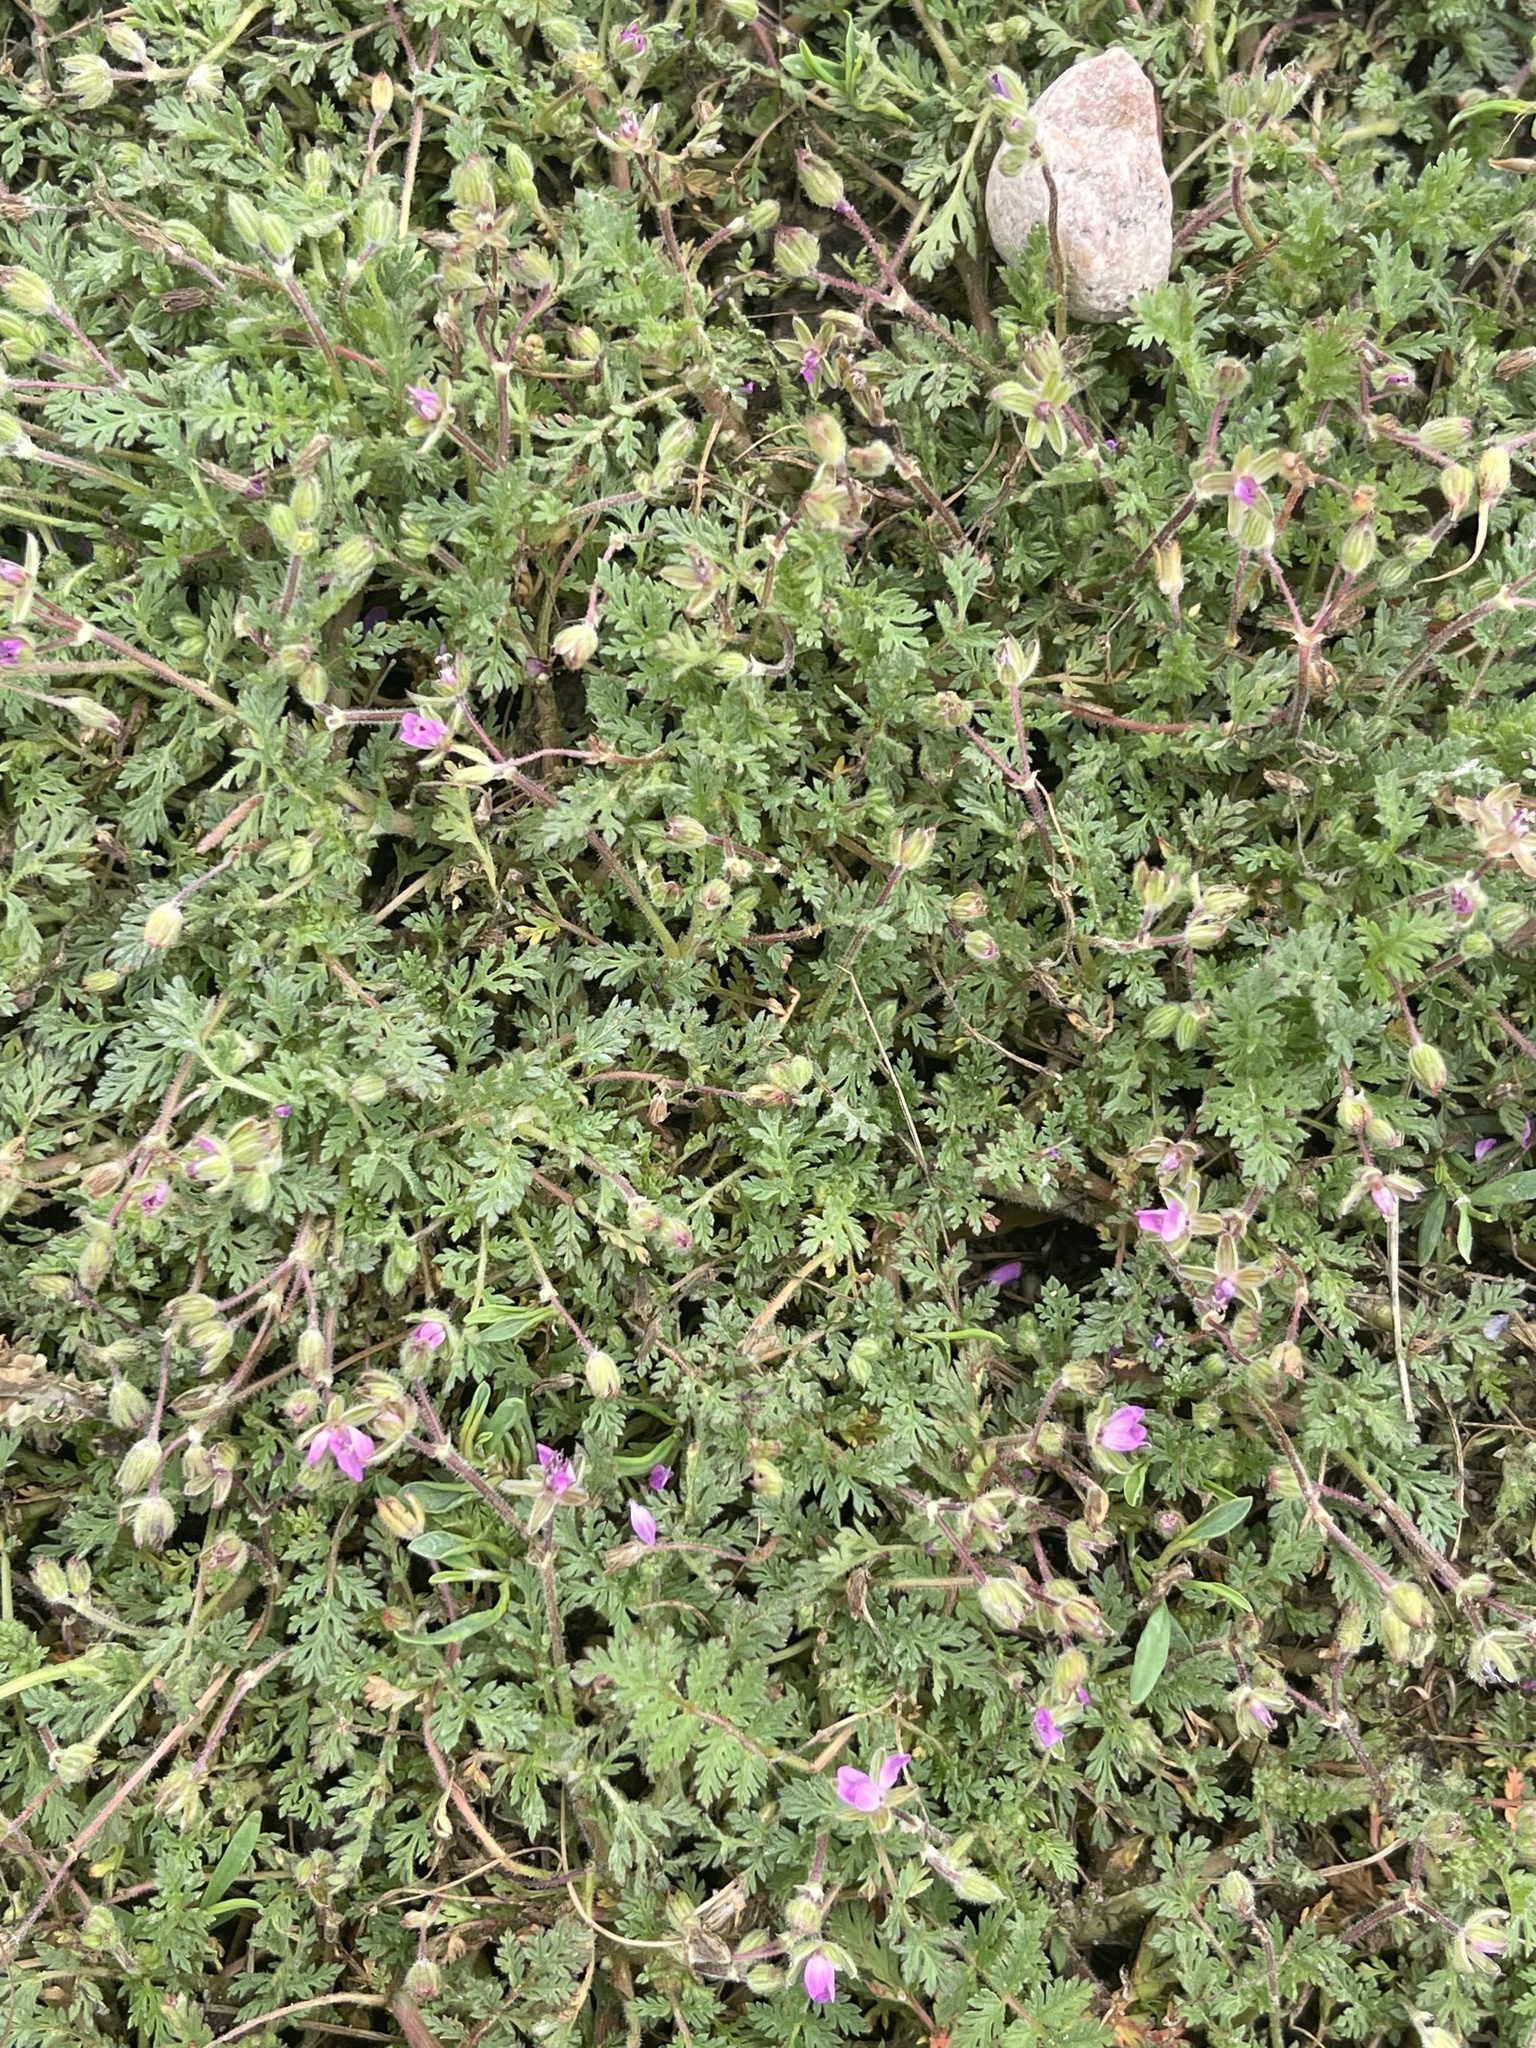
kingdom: Plantae
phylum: Tracheophyta
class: Magnoliopsida
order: Geraniales
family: Geraniaceae
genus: Erodium
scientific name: Erodium cicutarium
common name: Common stork's-bill
